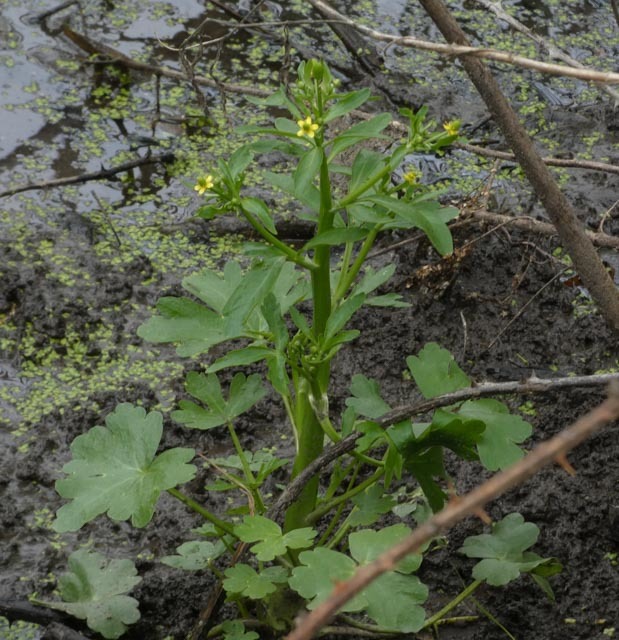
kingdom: Plantae
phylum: Tracheophyta
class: Magnoliopsida
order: Ranunculales
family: Ranunculaceae
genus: Ranunculus
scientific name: Ranunculus sceleratus
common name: Celery-leaved buttercup
